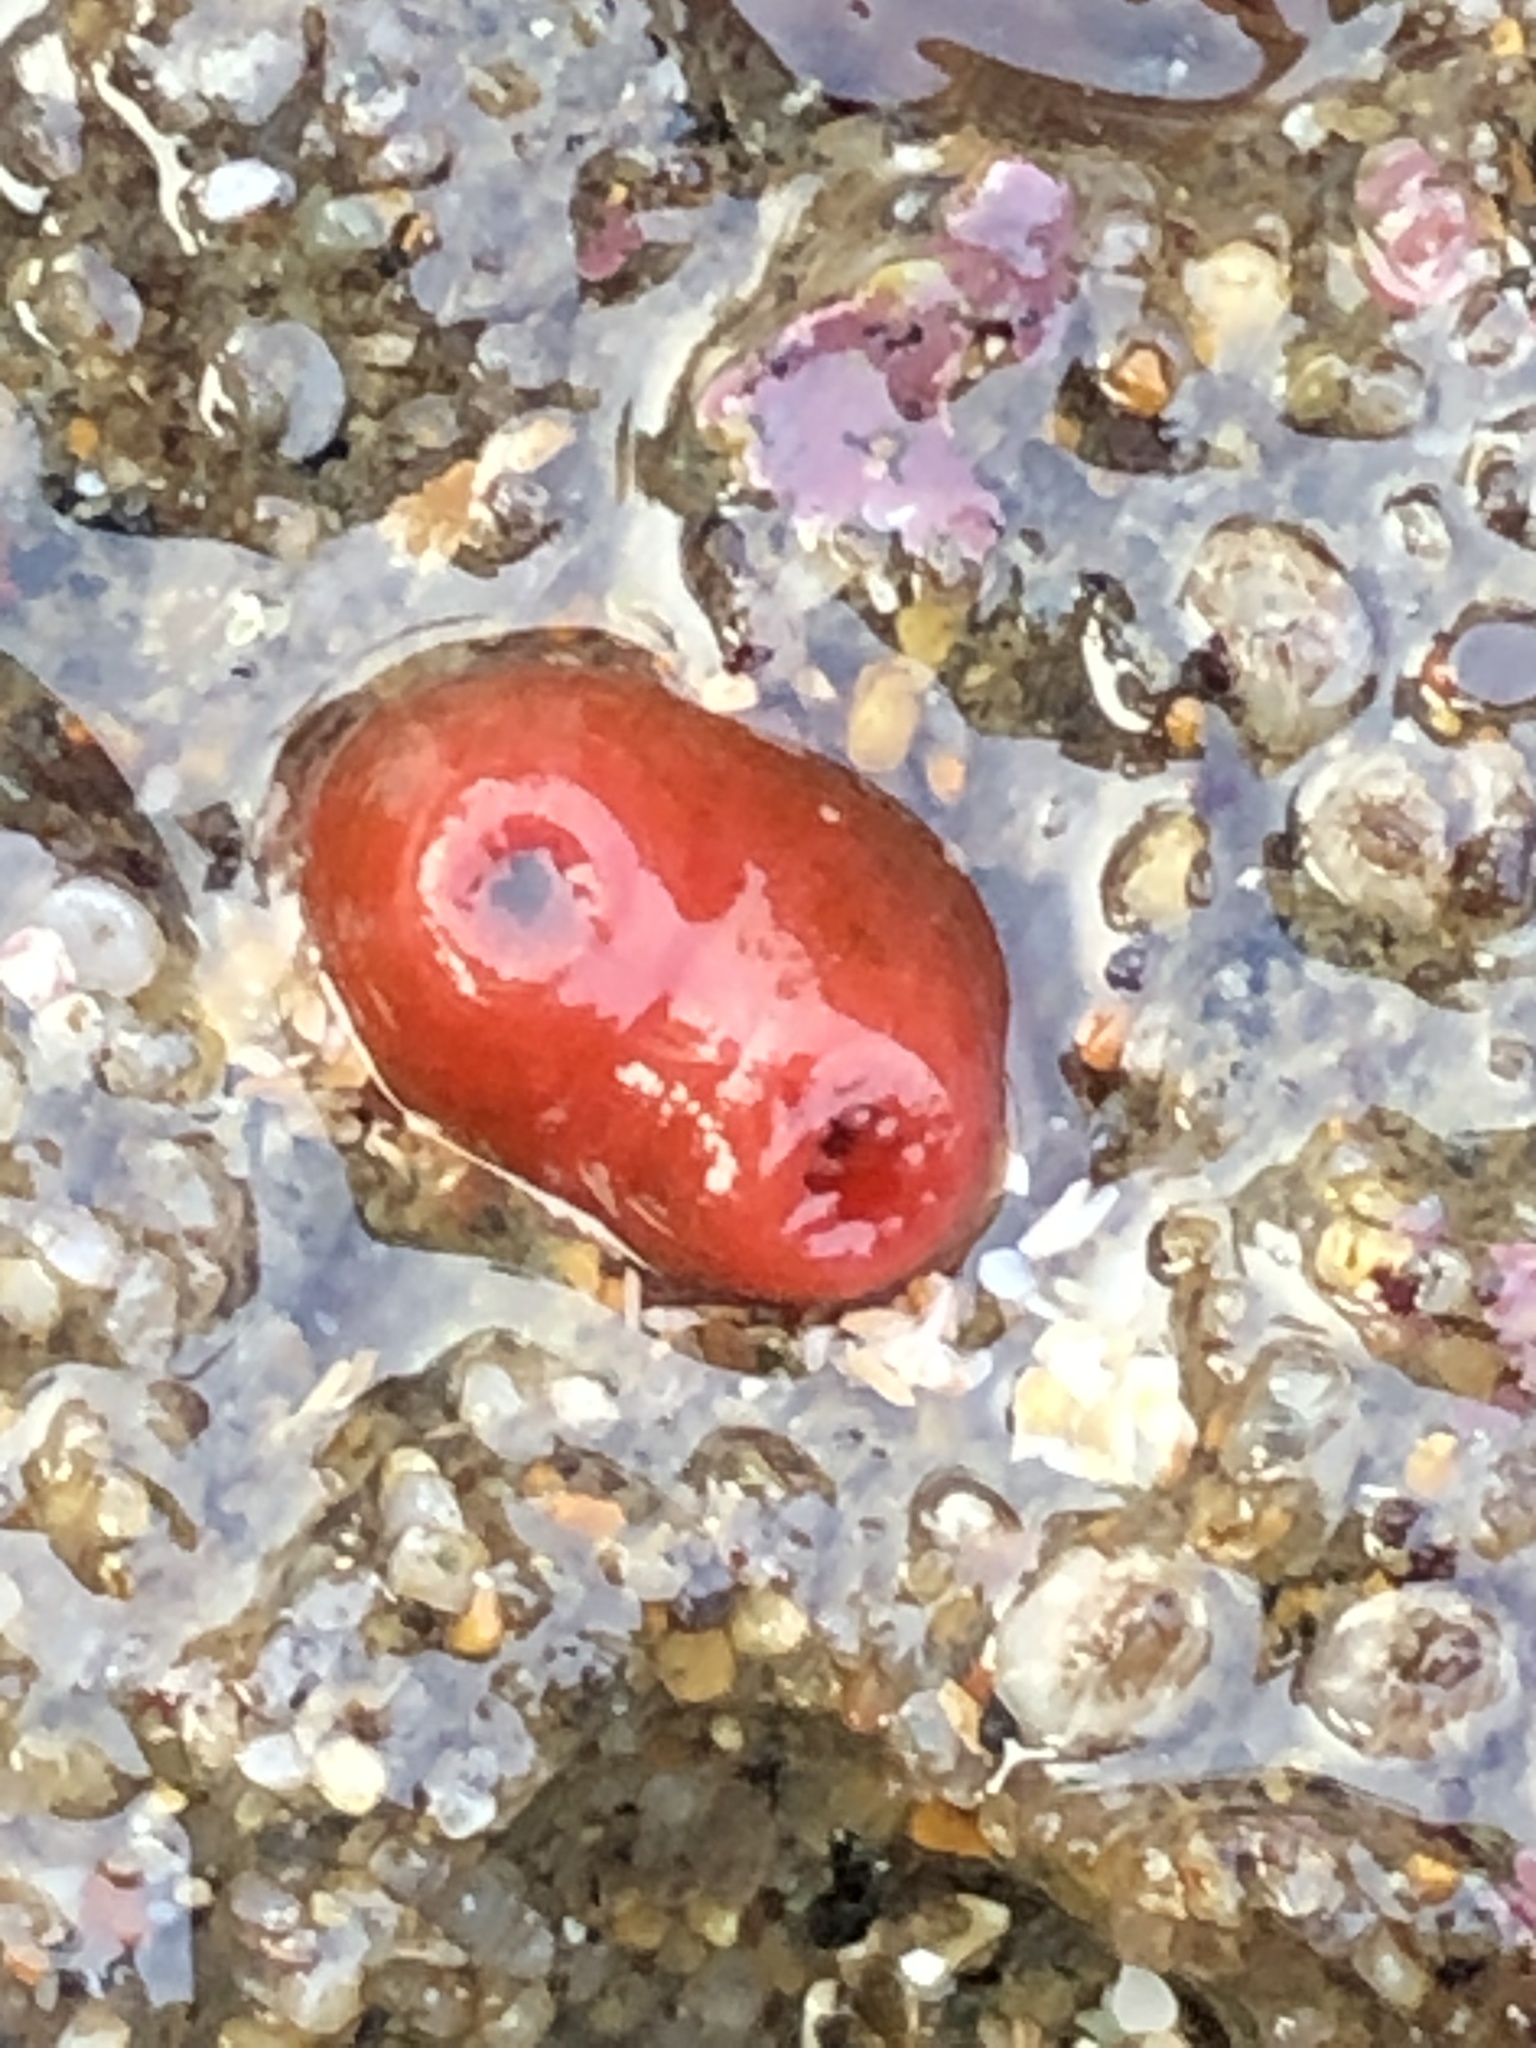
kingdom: Animalia
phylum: Mollusca
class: Bivalvia
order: Adapedonta
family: Hiatellidae
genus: Hiatella
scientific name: Hiatella arctica
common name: Arctic hiatella
